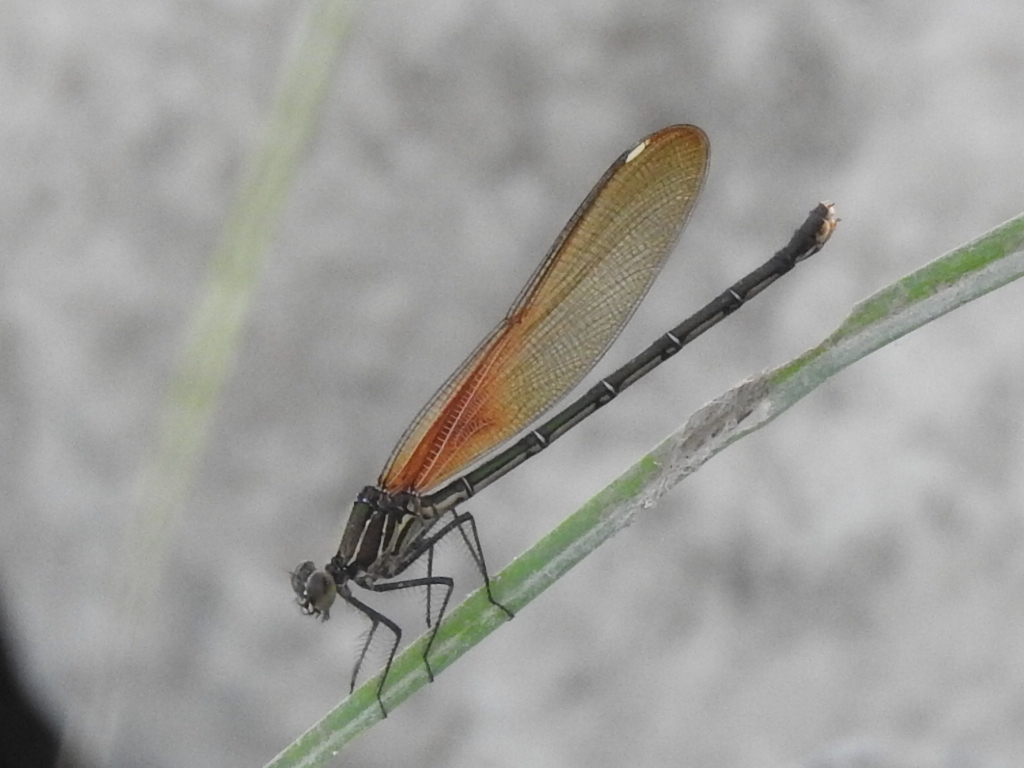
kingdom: Animalia
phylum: Arthropoda
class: Insecta
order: Odonata
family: Calopterygidae
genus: Hetaerina
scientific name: Hetaerina americana
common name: American rubyspot
